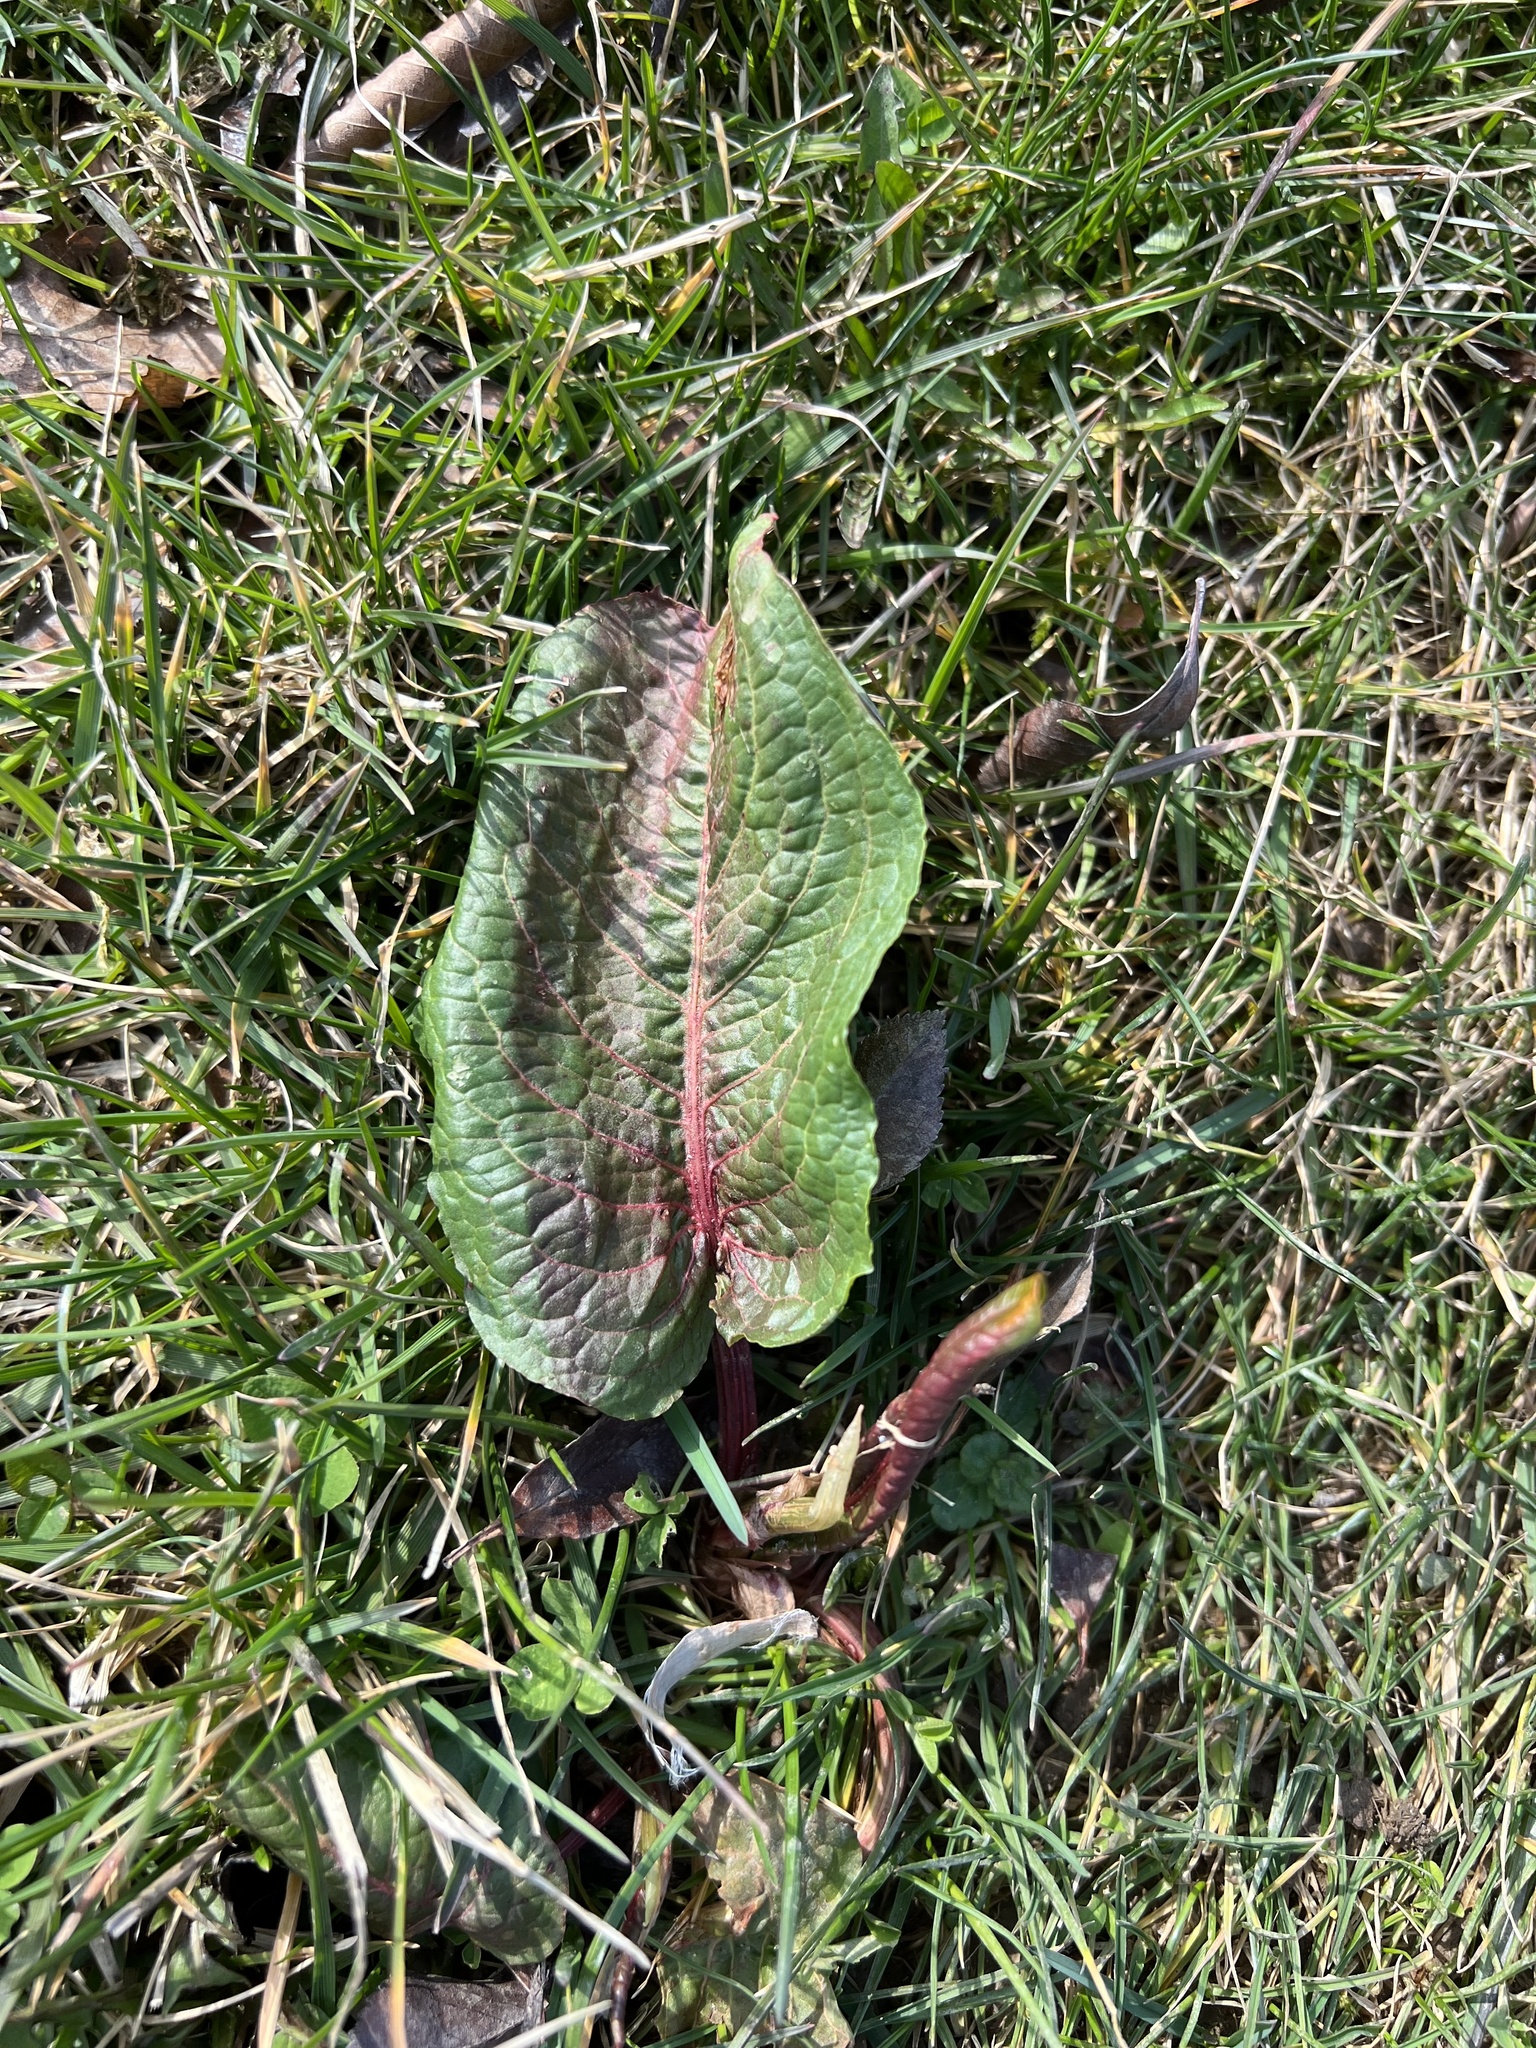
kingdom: Plantae
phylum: Tracheophyta
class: Magnoliopsida
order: Caryophyllales
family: Polygonaceae
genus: Rumex
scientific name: Rumex obtusifolius
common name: Bitter dock
